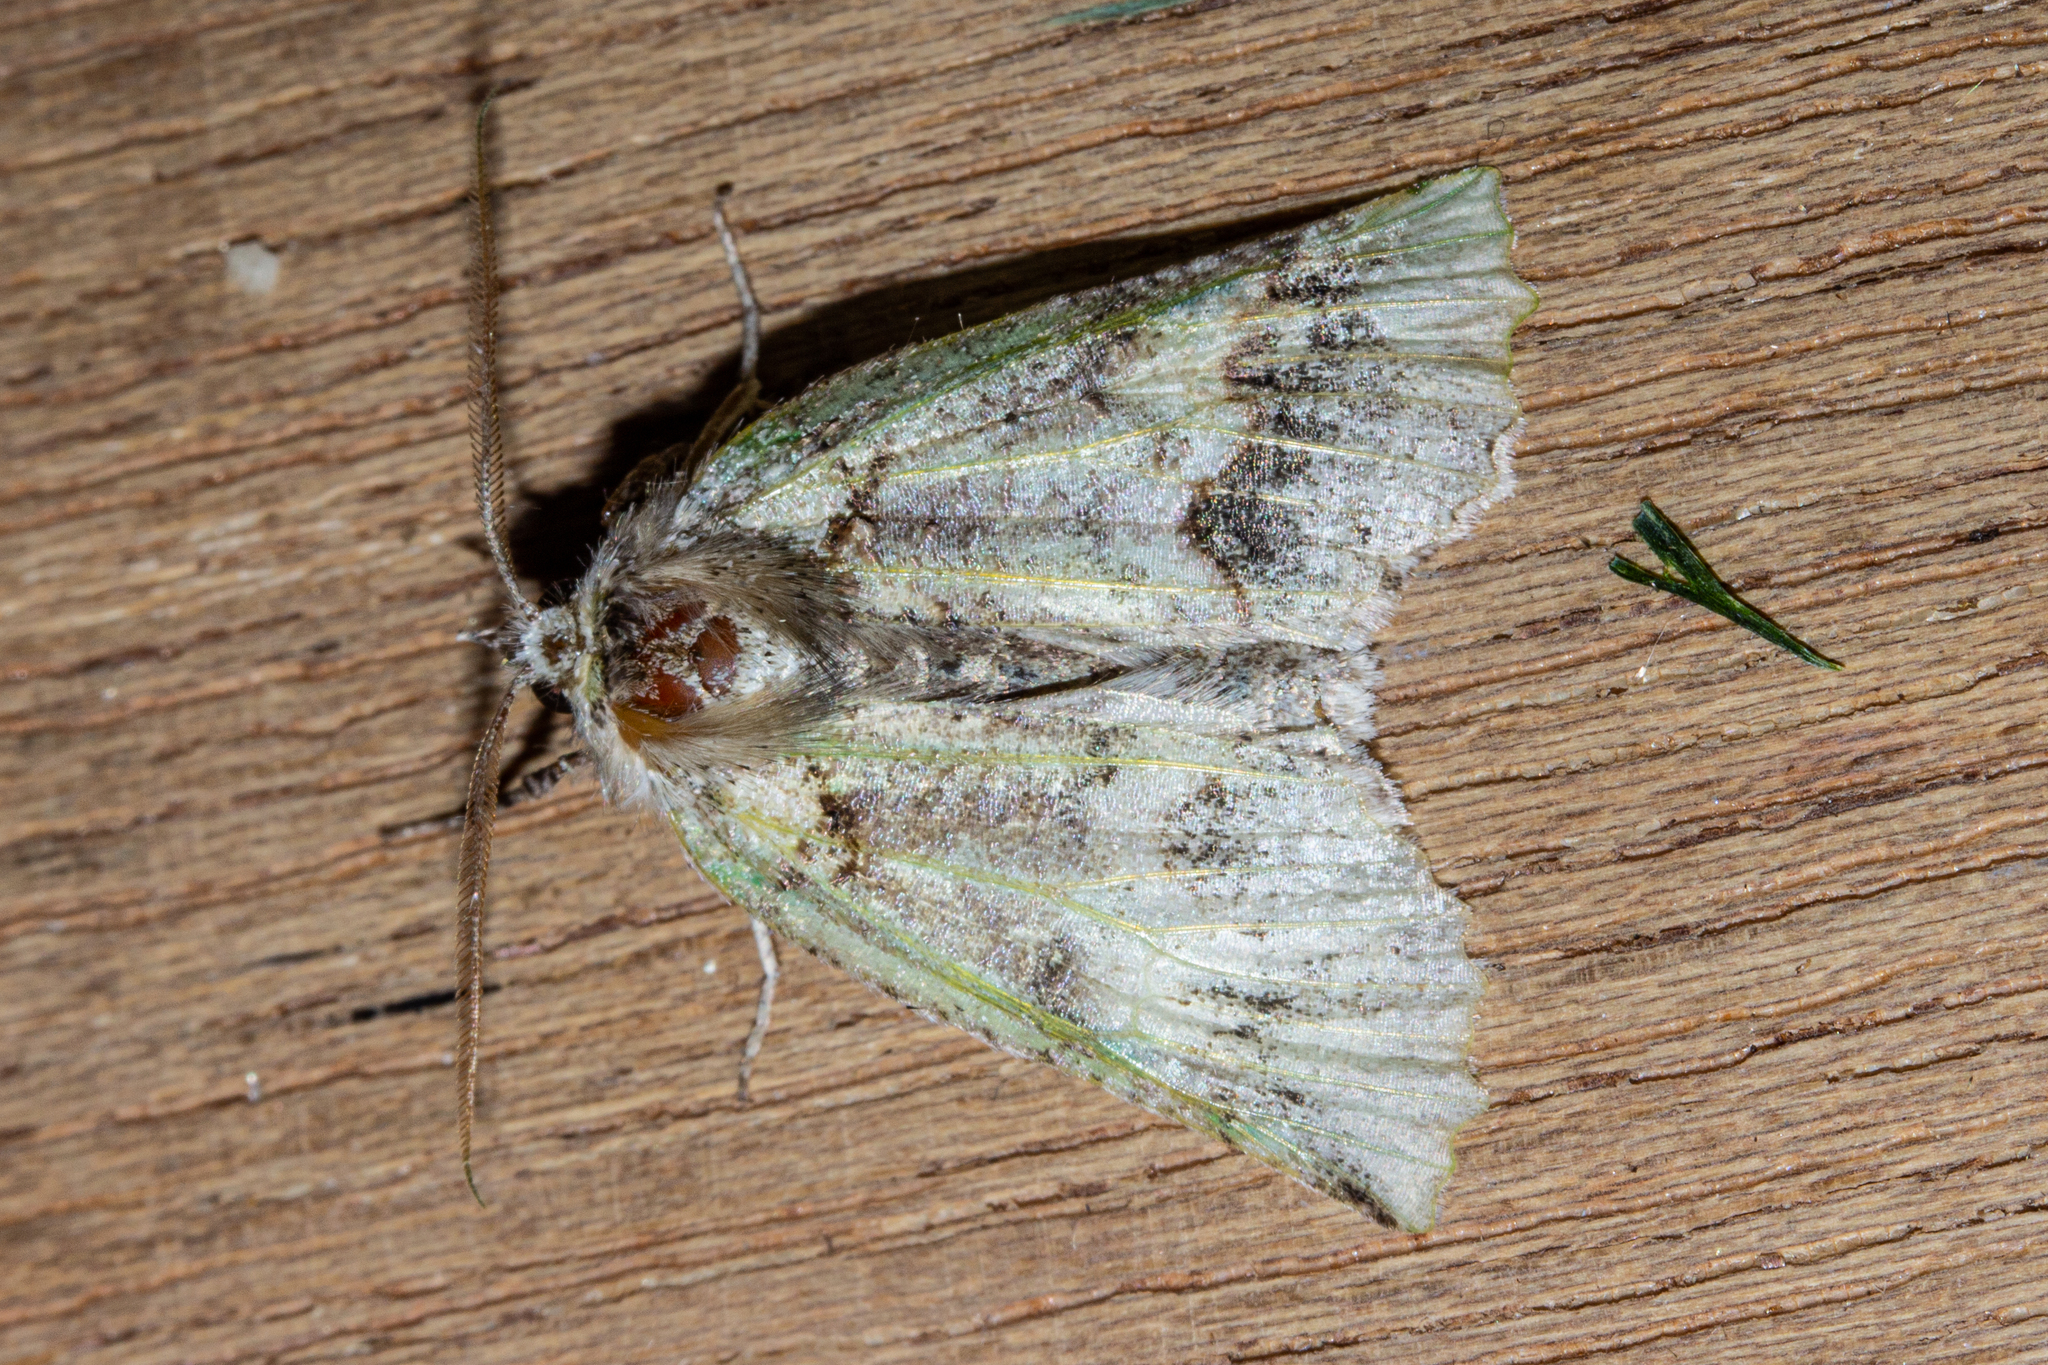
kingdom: Animalia
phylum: Arthropoda
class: Insecta
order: Lepidoptera
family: Geometridae
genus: Declana
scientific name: Declana floccosa
